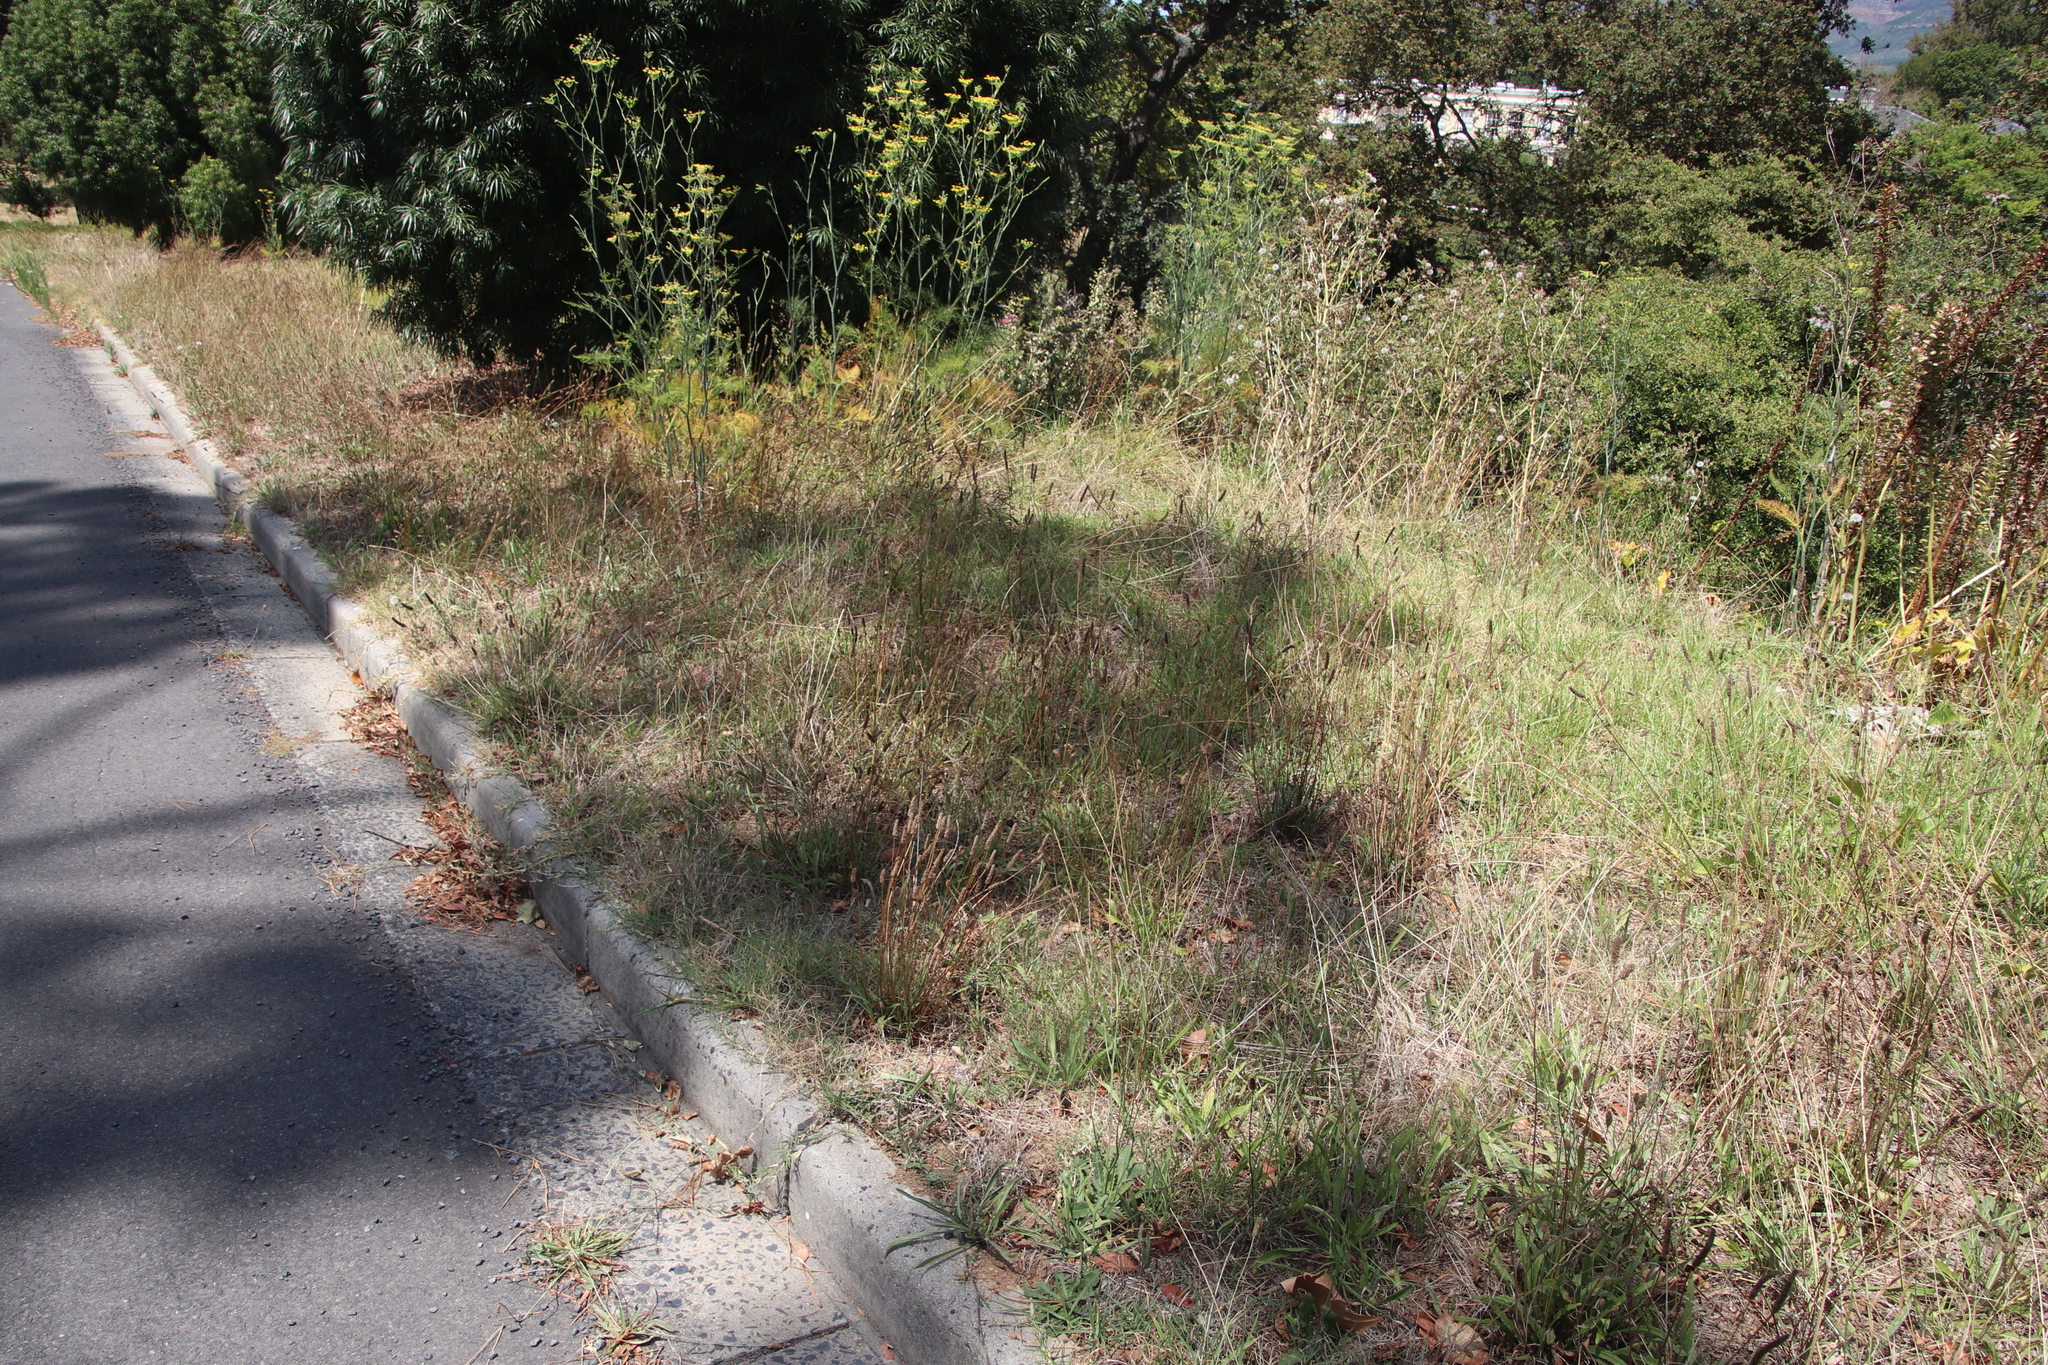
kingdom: Plantae
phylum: Tracheophyta
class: Magnoliopsida
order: Lamiales
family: Plantaginaceae
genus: Plantago
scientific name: Plantago lanceolata
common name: Ribwort plantain
